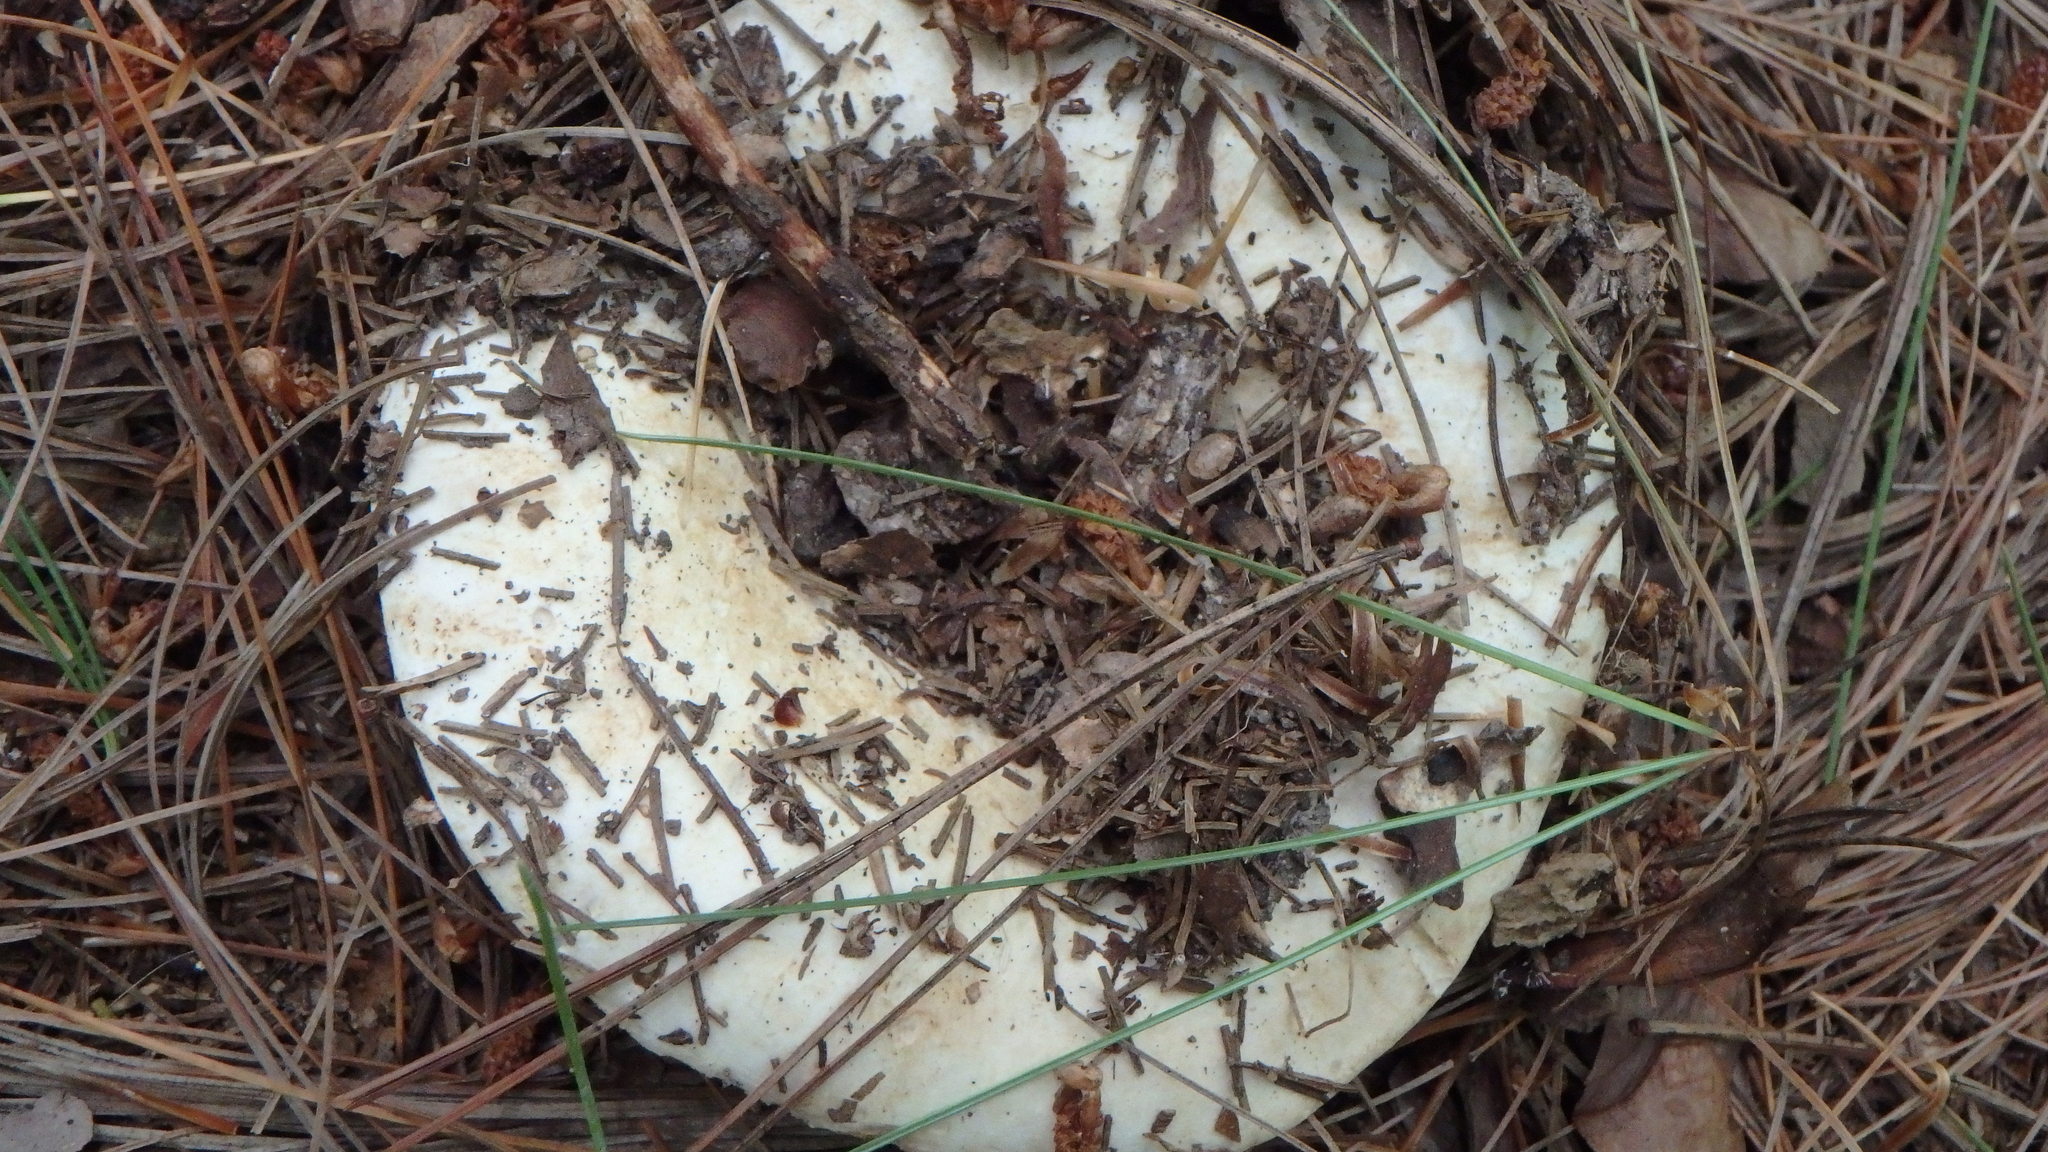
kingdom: Fungi
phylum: Basidiomycota
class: Agaricomycetes
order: Russulales
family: Russulaceae
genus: Lactifluus
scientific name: Lactifluus
